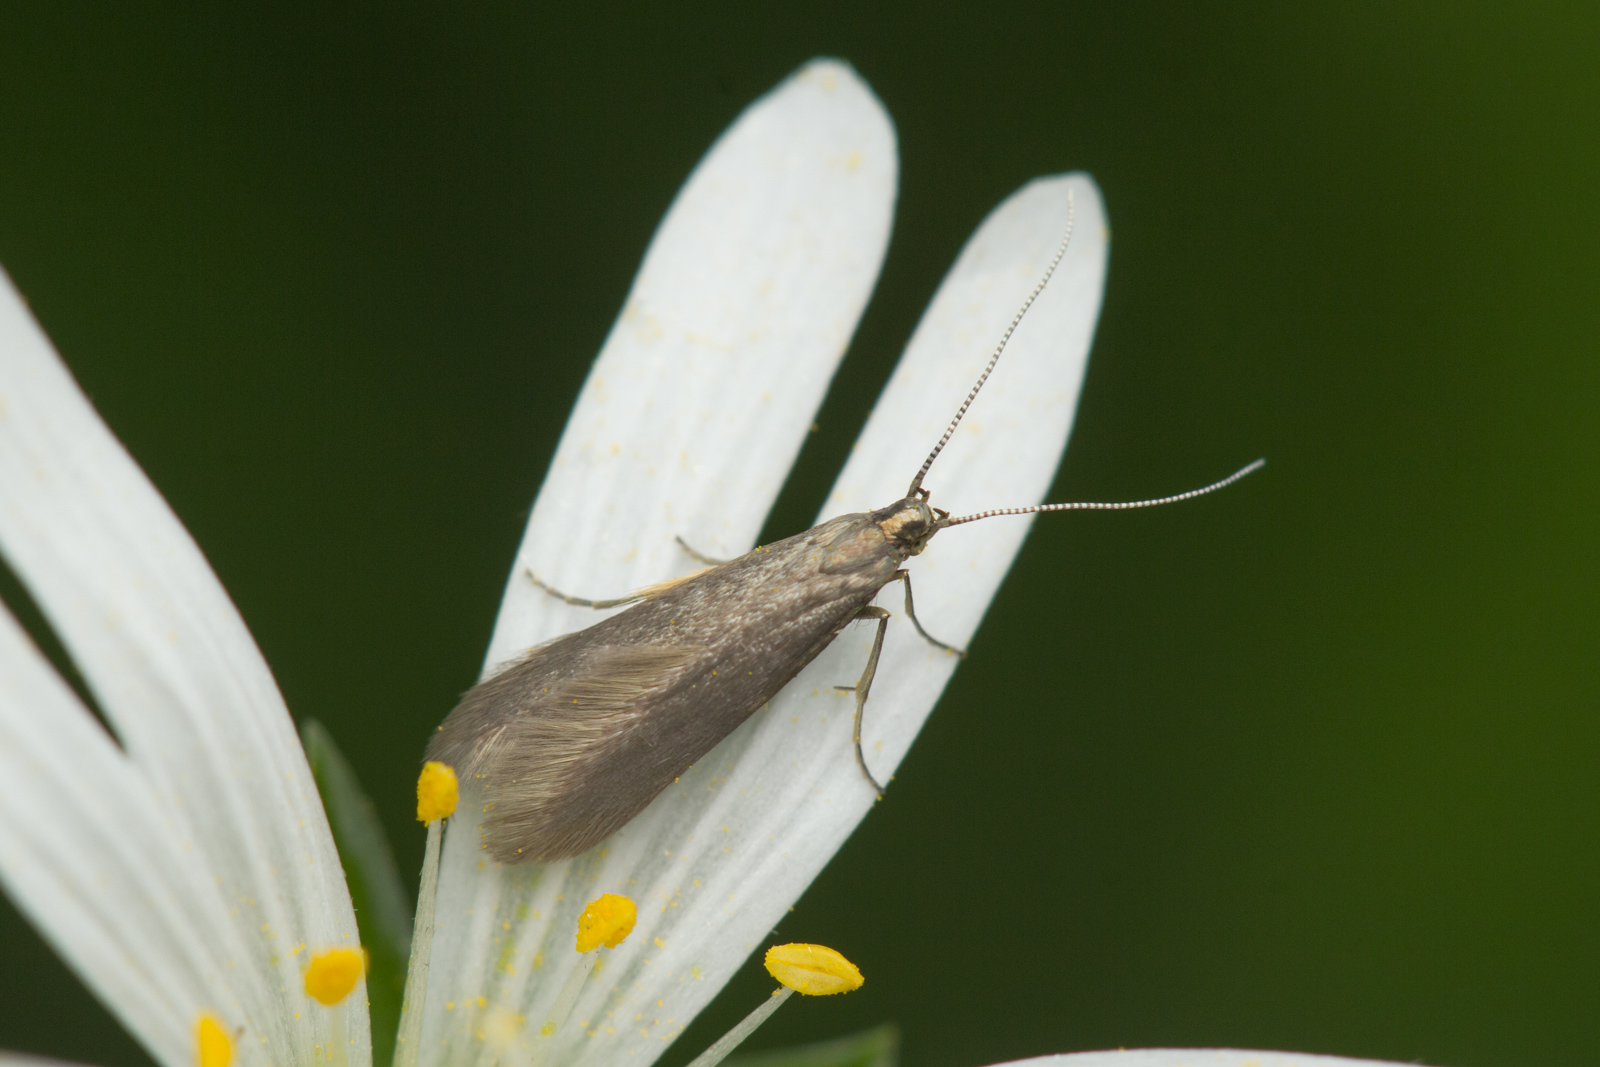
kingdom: Animalia
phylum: Arthropoda
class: Insecta
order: Lepidoptera
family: Coleophoridae
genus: Metriotes
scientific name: Metriotes lutarea
